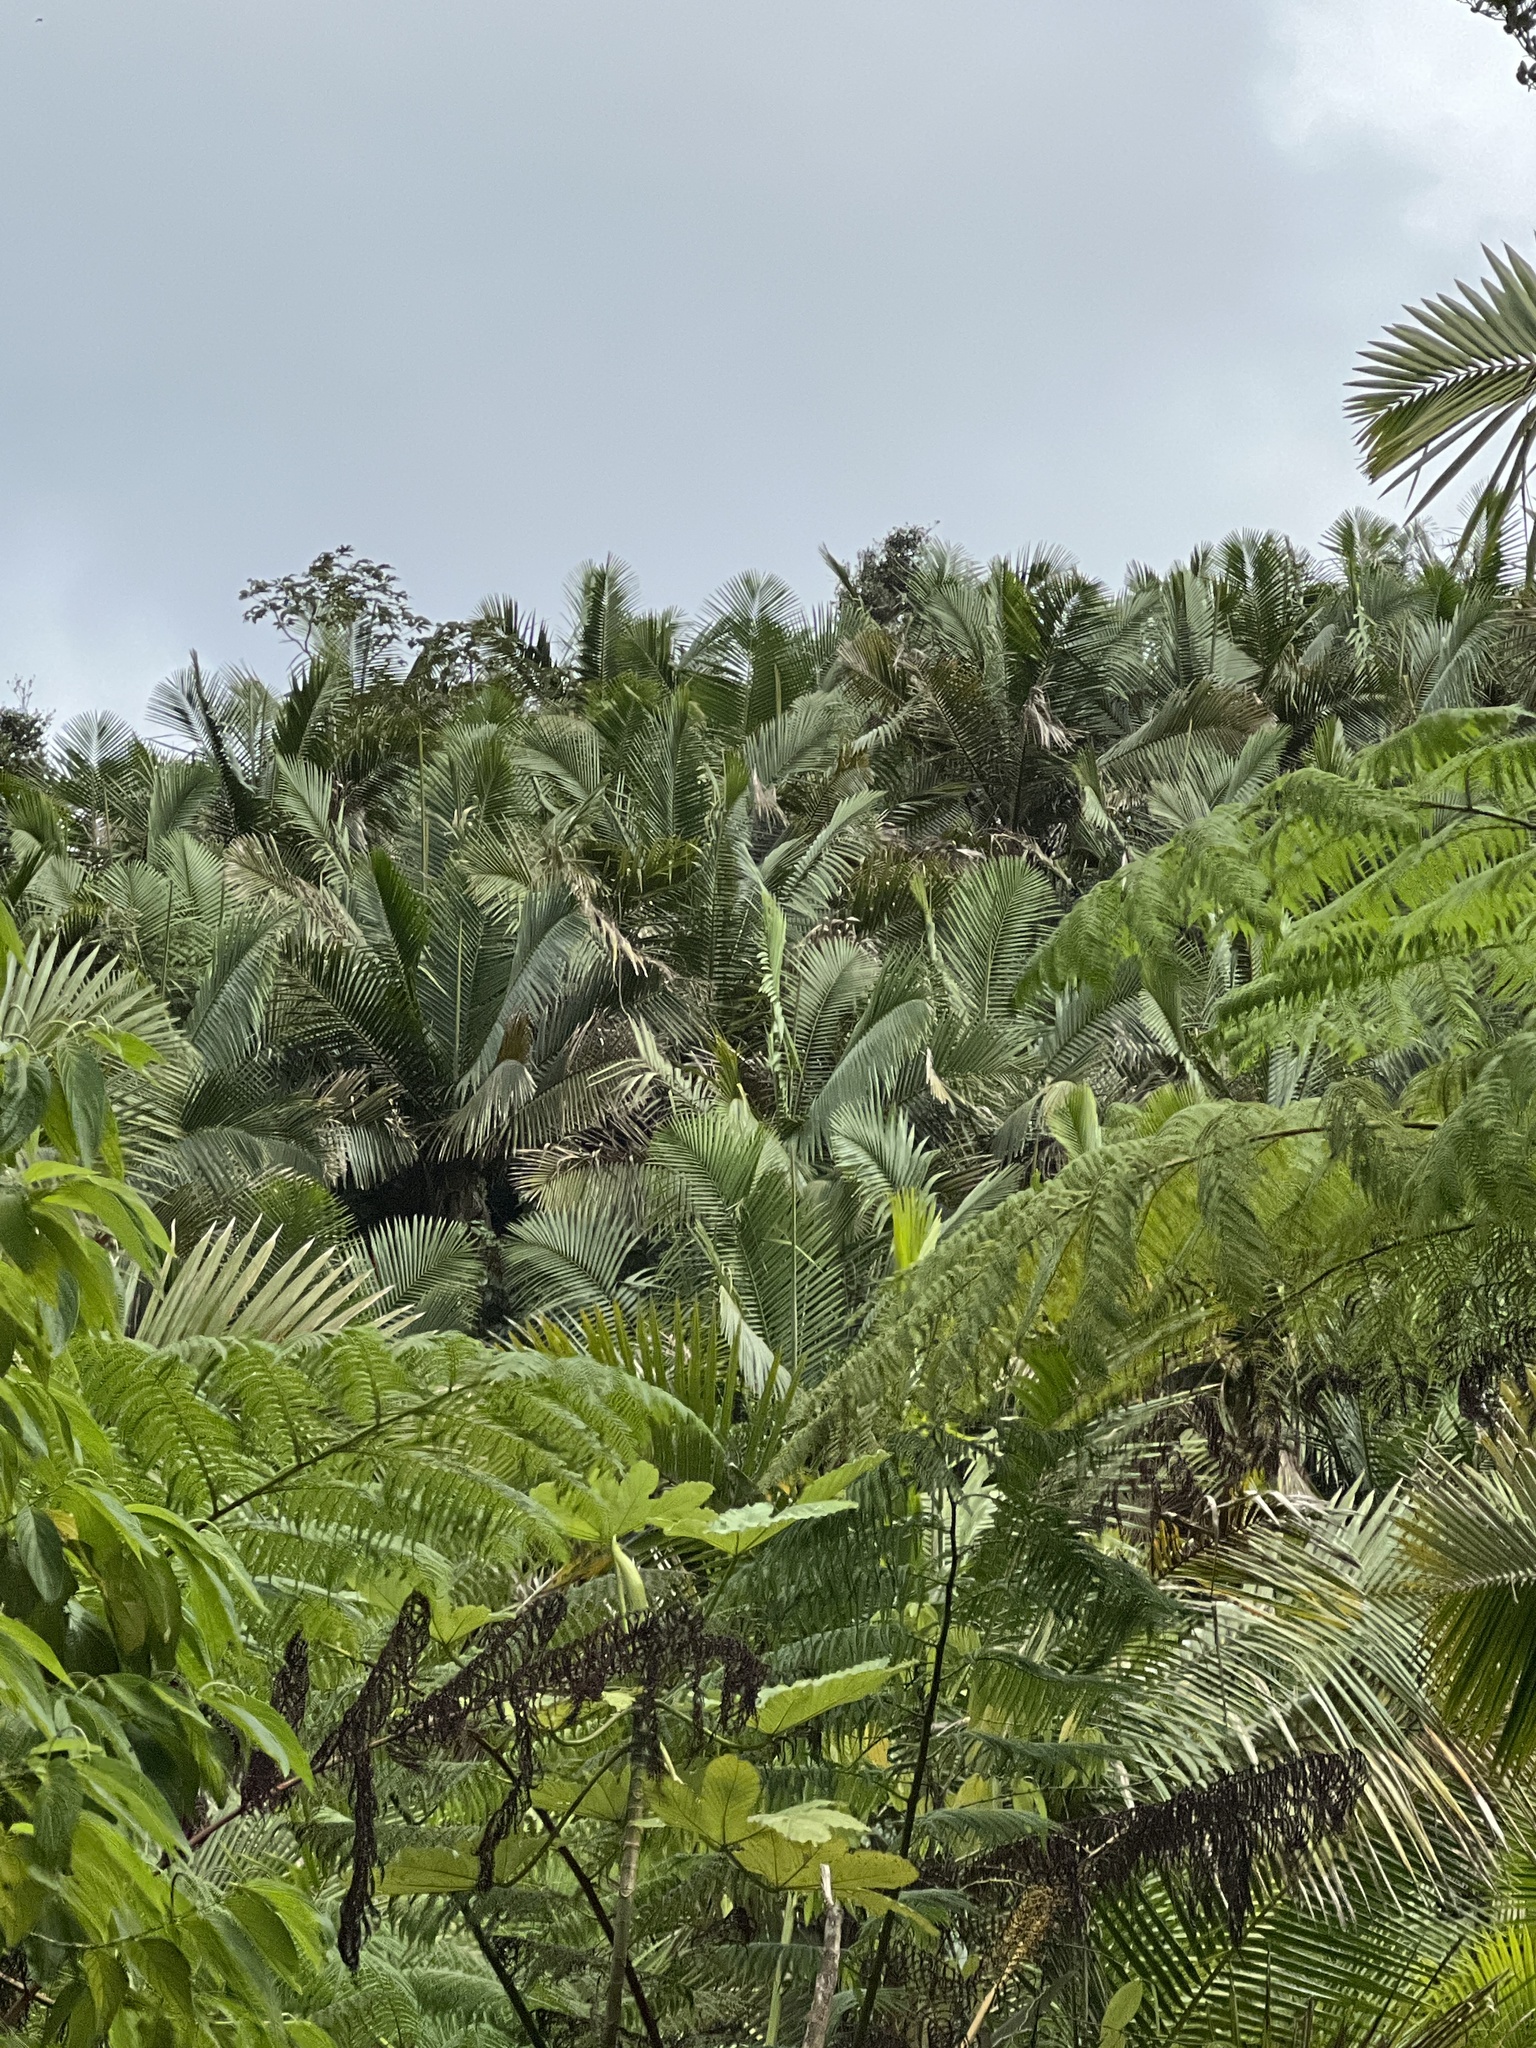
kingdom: Plantae
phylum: Tracheophyta
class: Liliopsida
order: Arecales
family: Arecaceae
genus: Prestoea
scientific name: Prestoea acuminata
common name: Sierran palm
